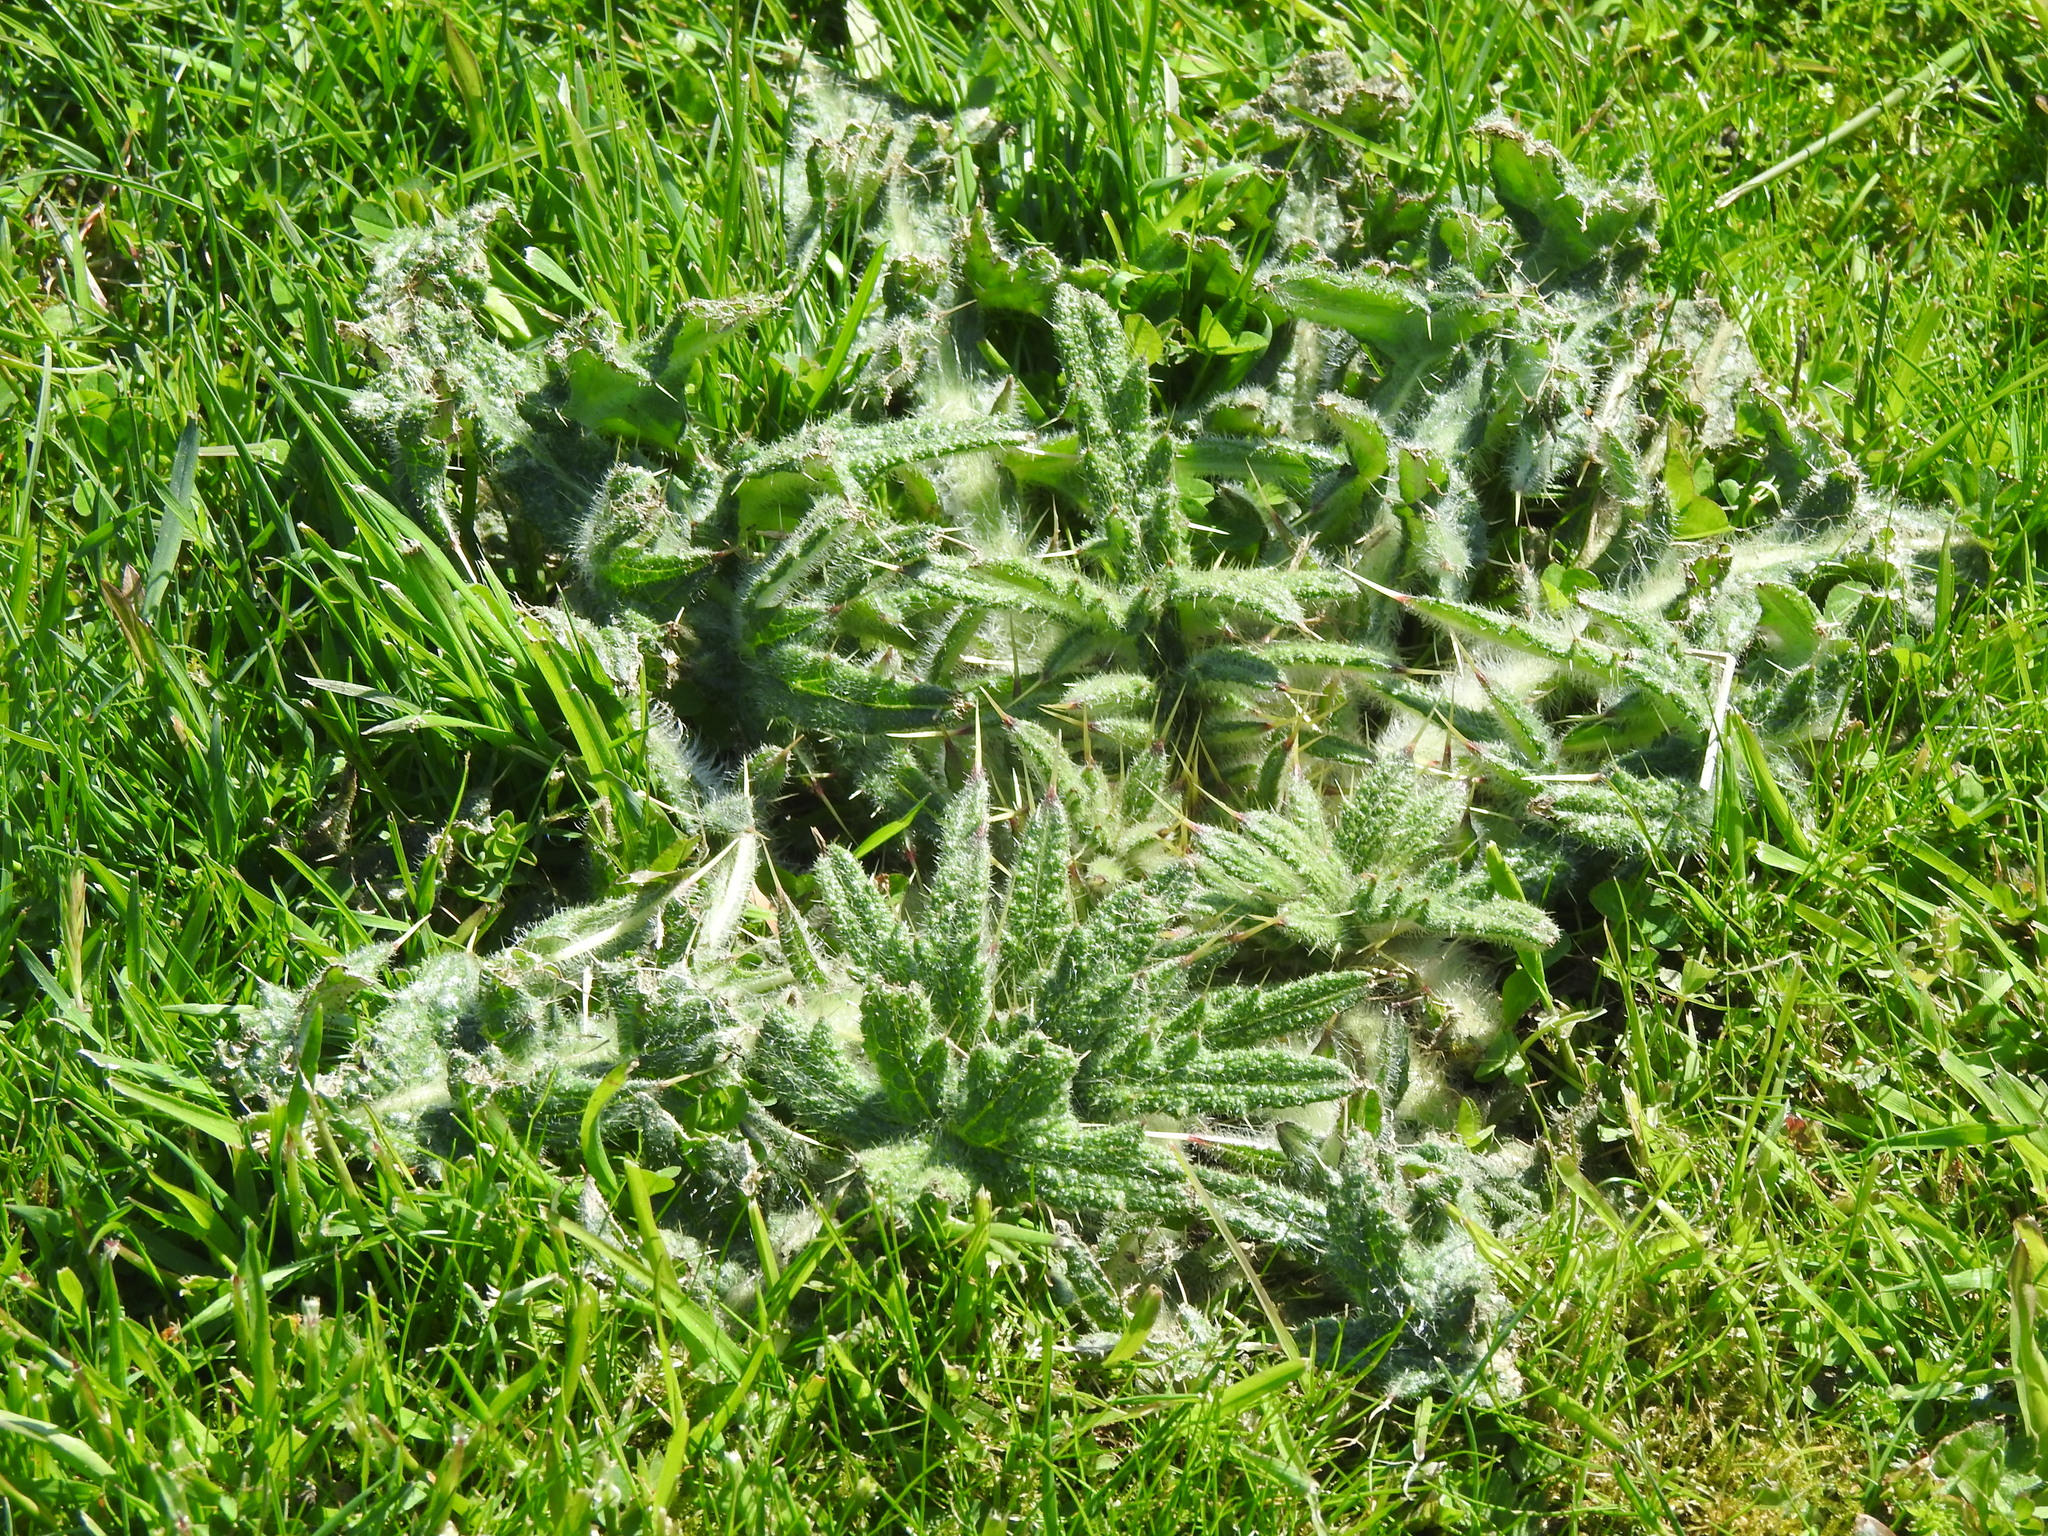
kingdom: Plantae
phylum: Tracheophyta
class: Magnoliopsida
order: Asterales
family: Asteraceae
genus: Cirsium
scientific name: Cirsium vulgare
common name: Bull thistle
